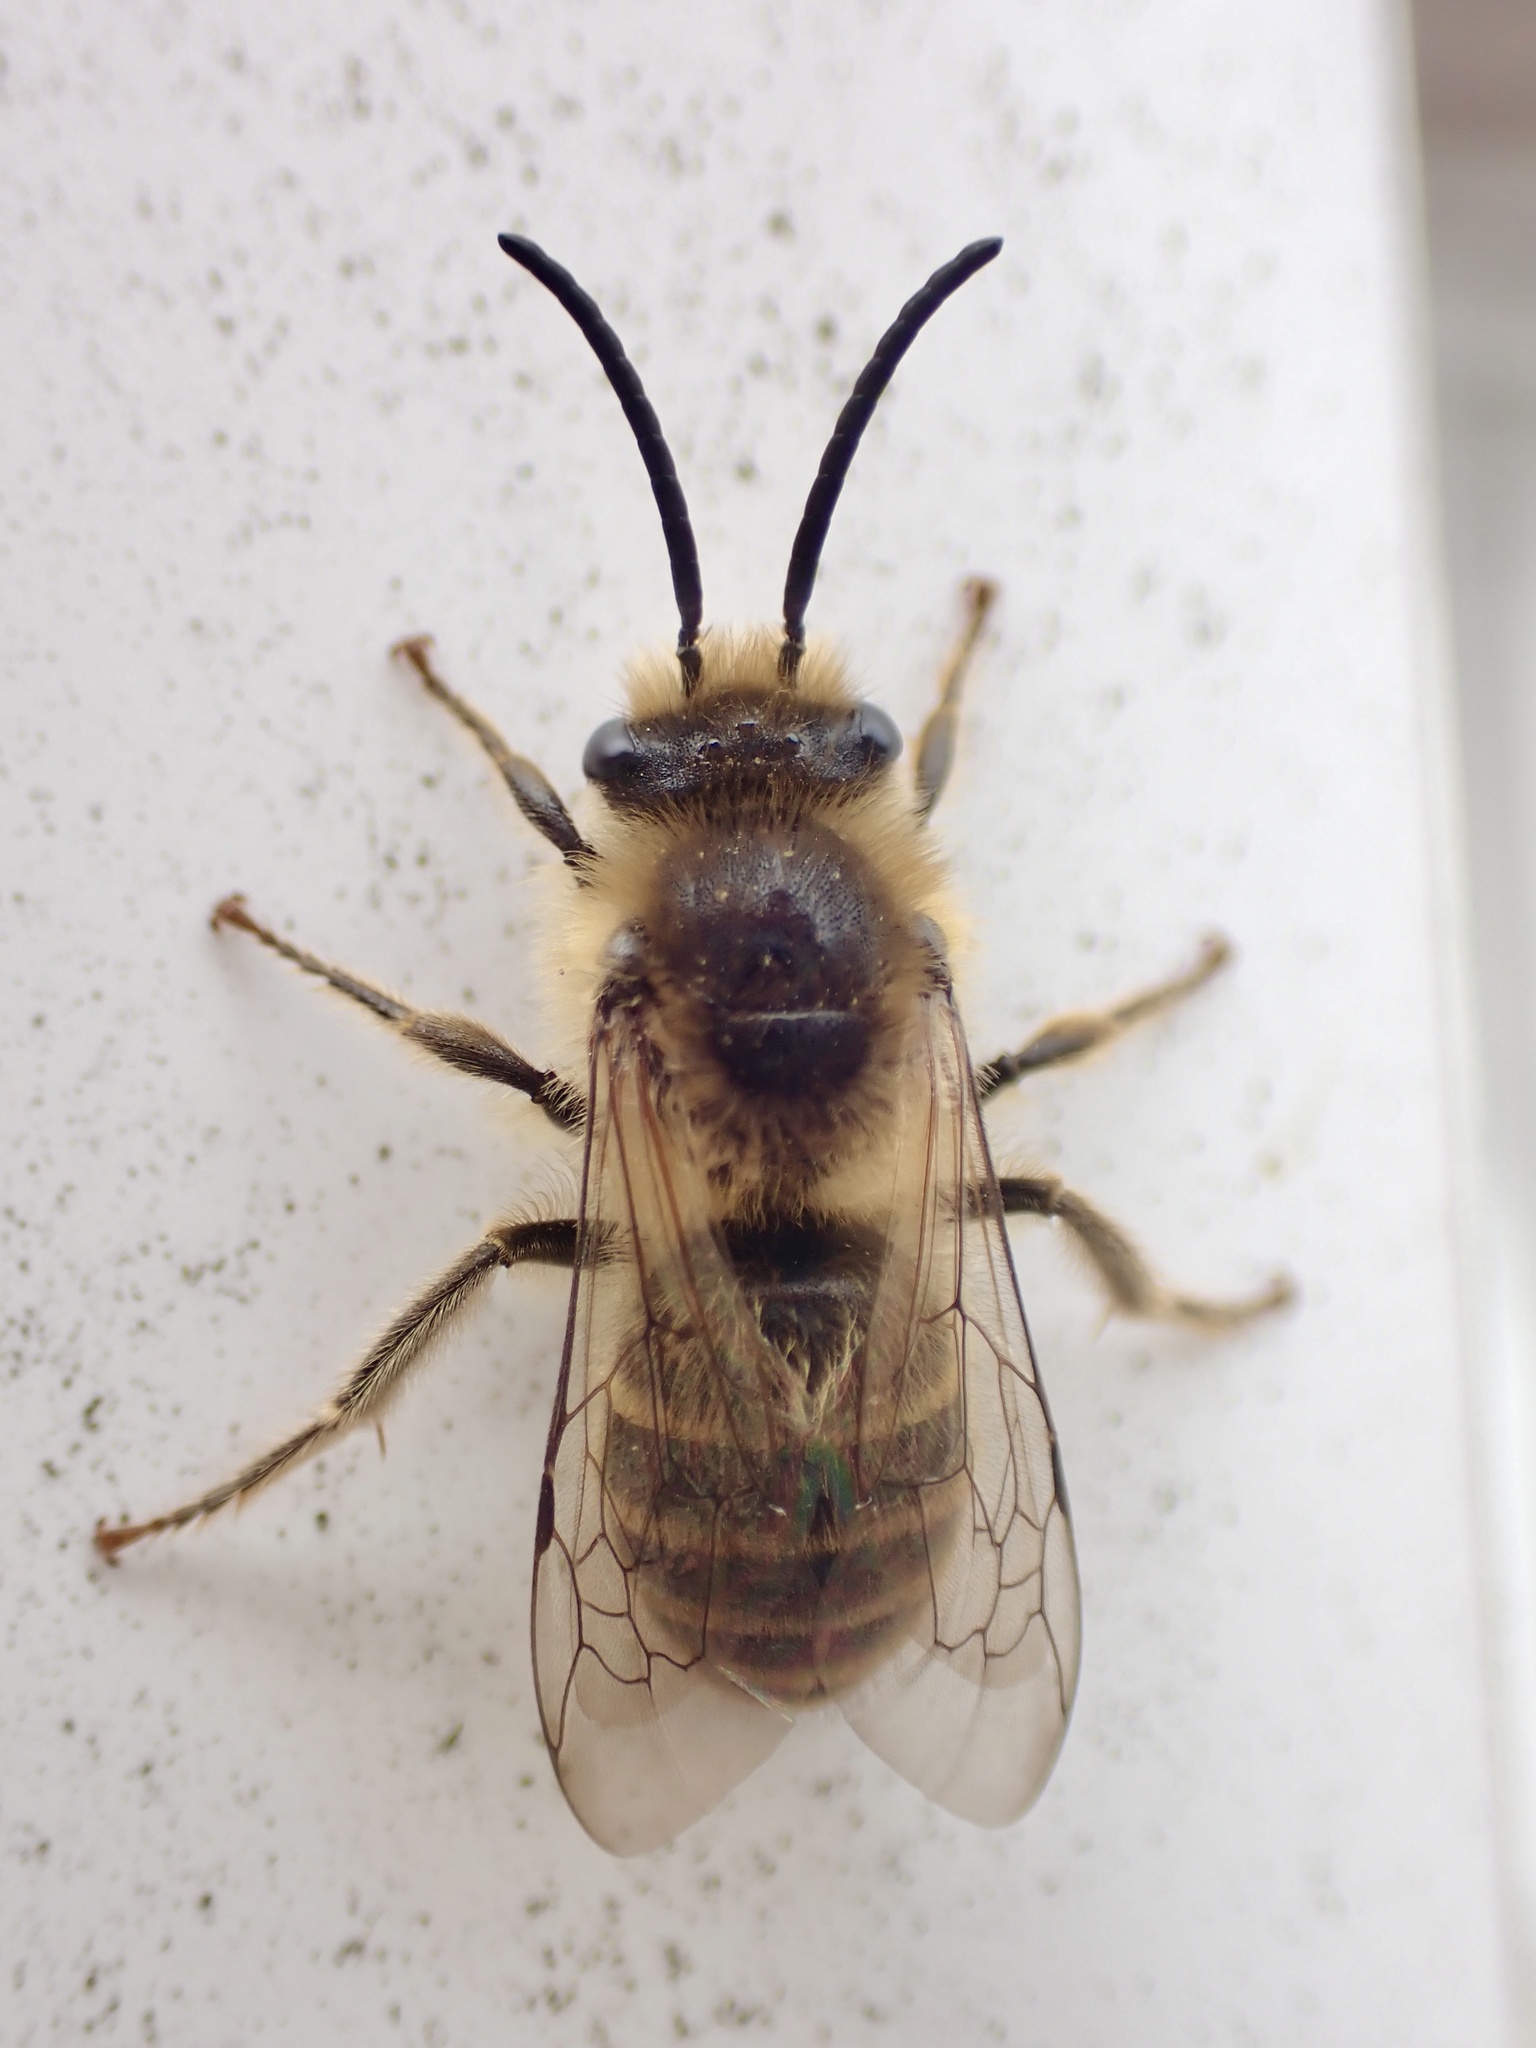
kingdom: Animalia
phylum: Arthropoda
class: Insecta
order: Hymenoptera
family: Colletidae
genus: Colletes
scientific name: Colletes inaequalis
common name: Unequal cellophane bee
